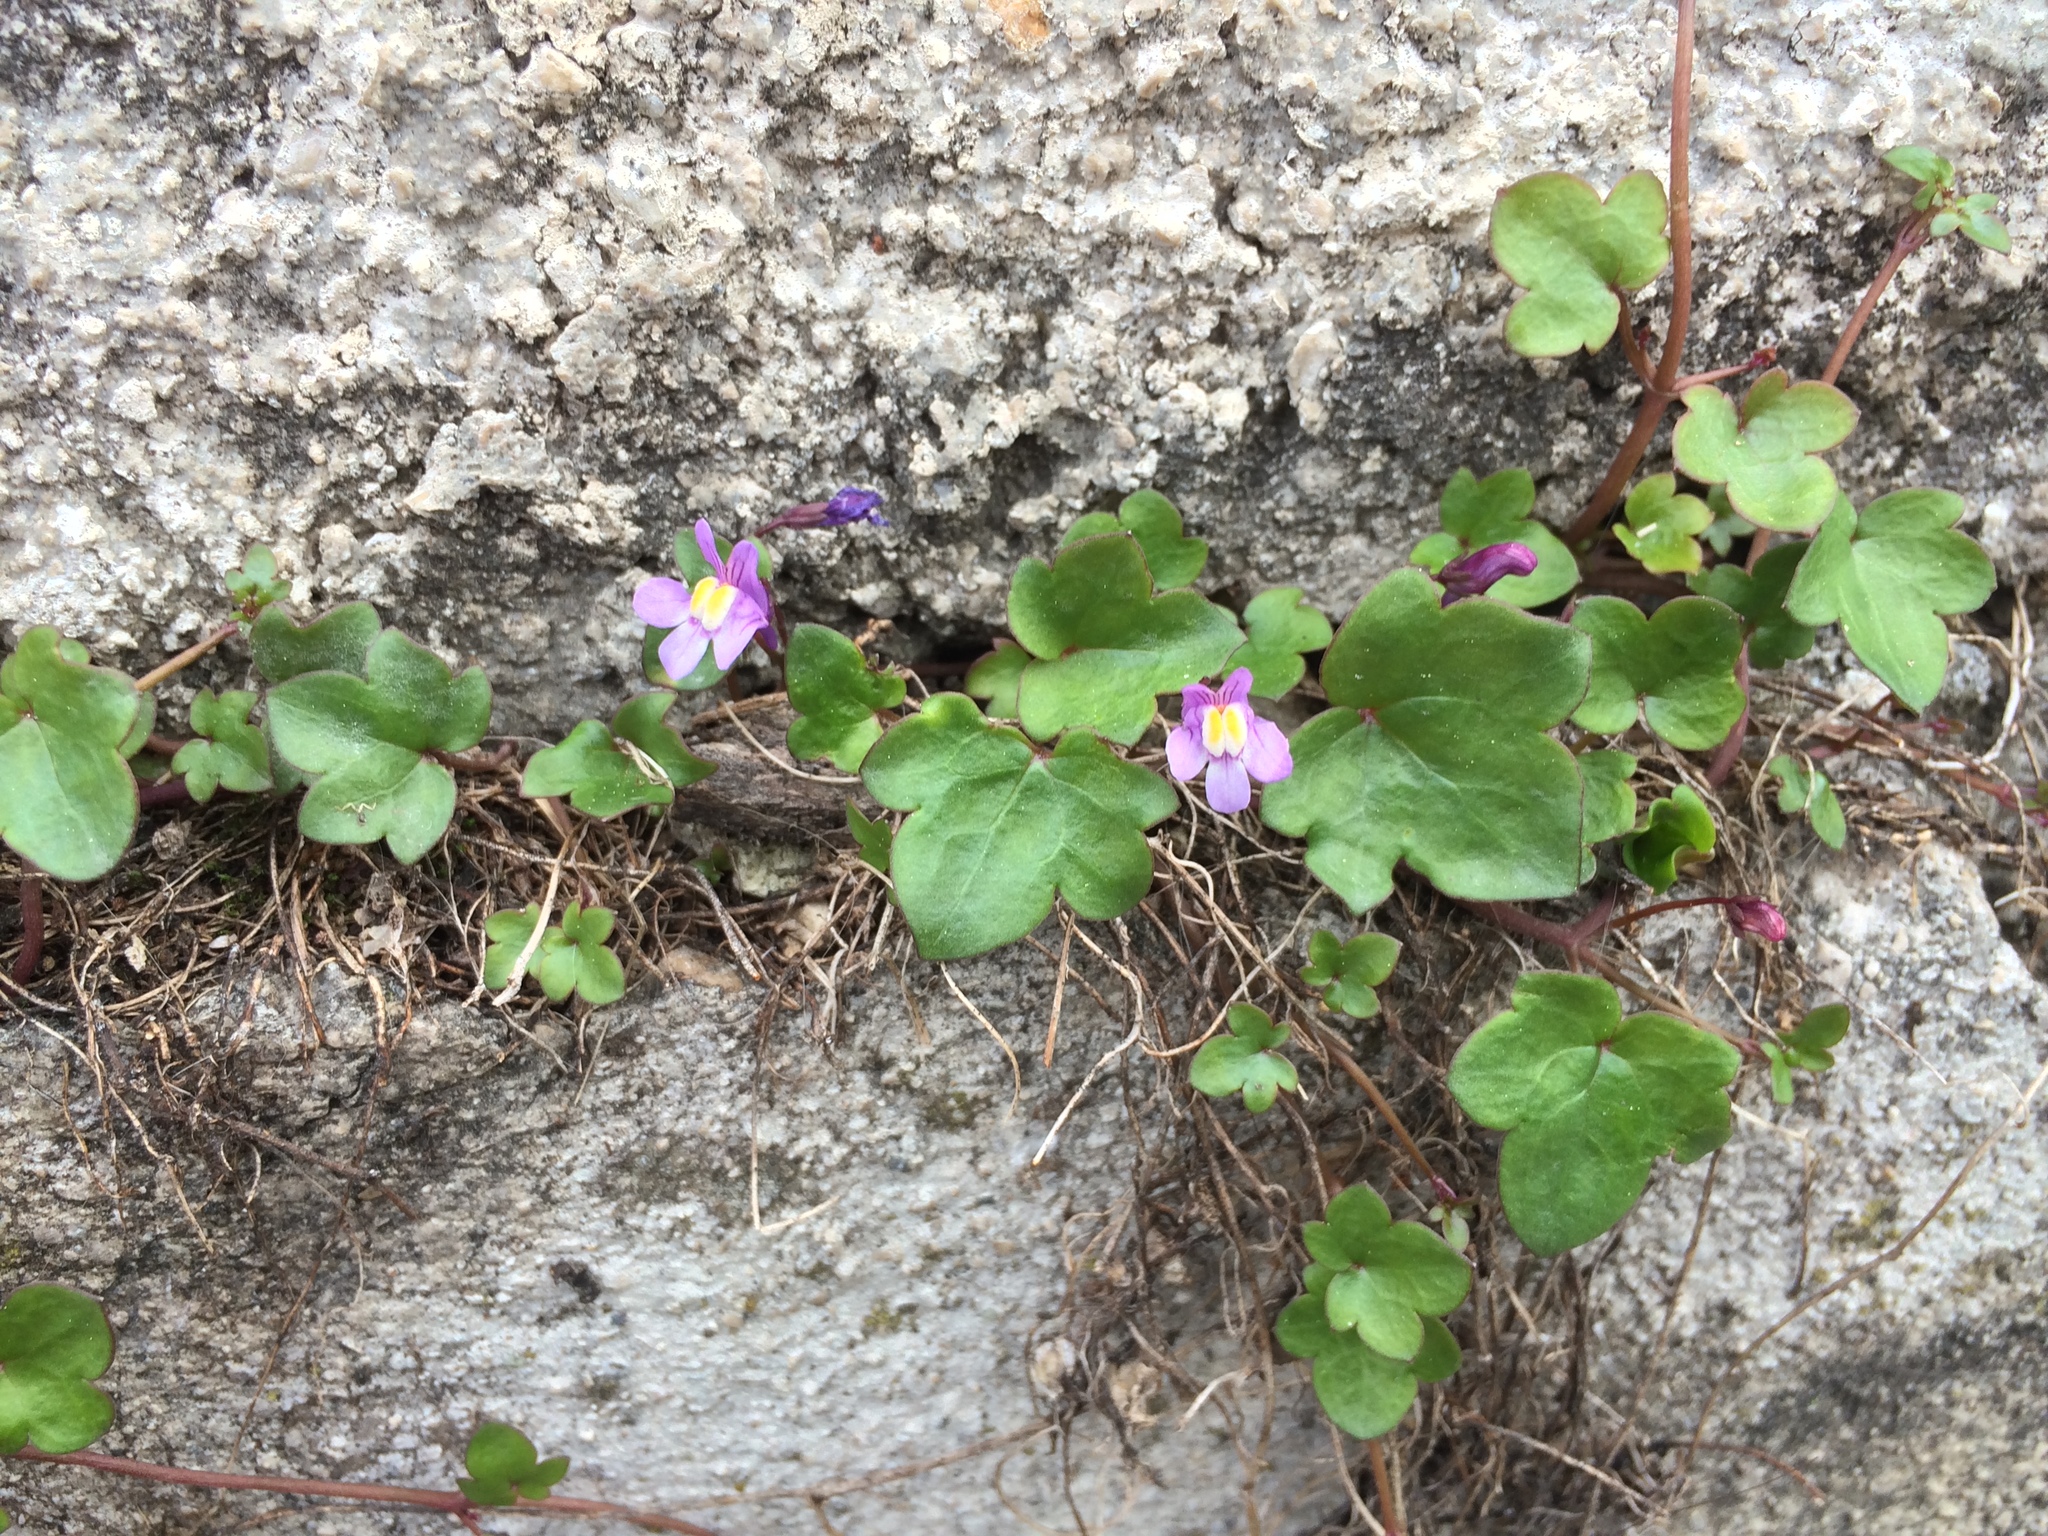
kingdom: Plantae
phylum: Tracheophyta
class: Magnoliopsida
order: Lamiales
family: Plantaginaceae
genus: Cymbalaria
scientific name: Cymbalaria muralis
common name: Ivy-leaved toadflax
